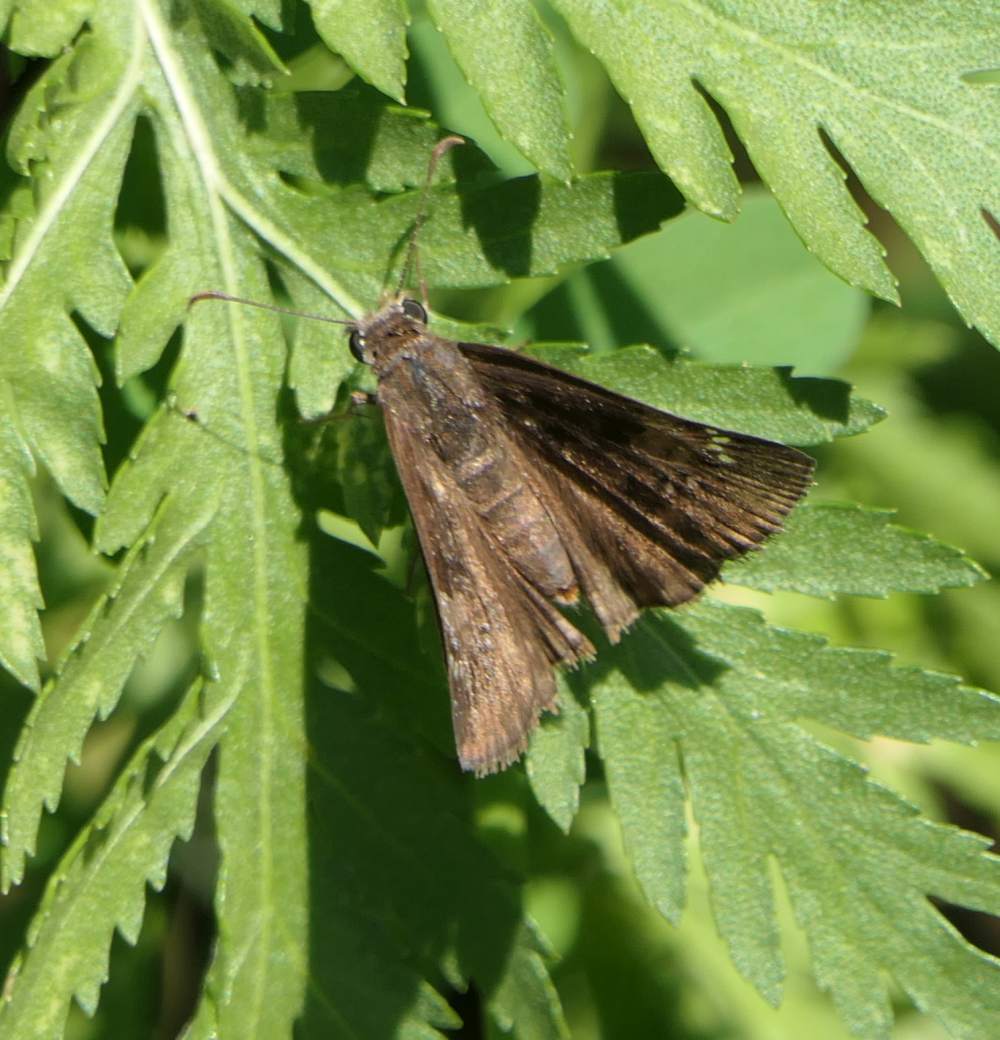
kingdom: Animalia
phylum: Arthropoda
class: Insecta
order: Lepidoptera
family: Hesperiidae
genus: Erynnis
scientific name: Erynnis baptisiae
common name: Wild indigo duskywing
